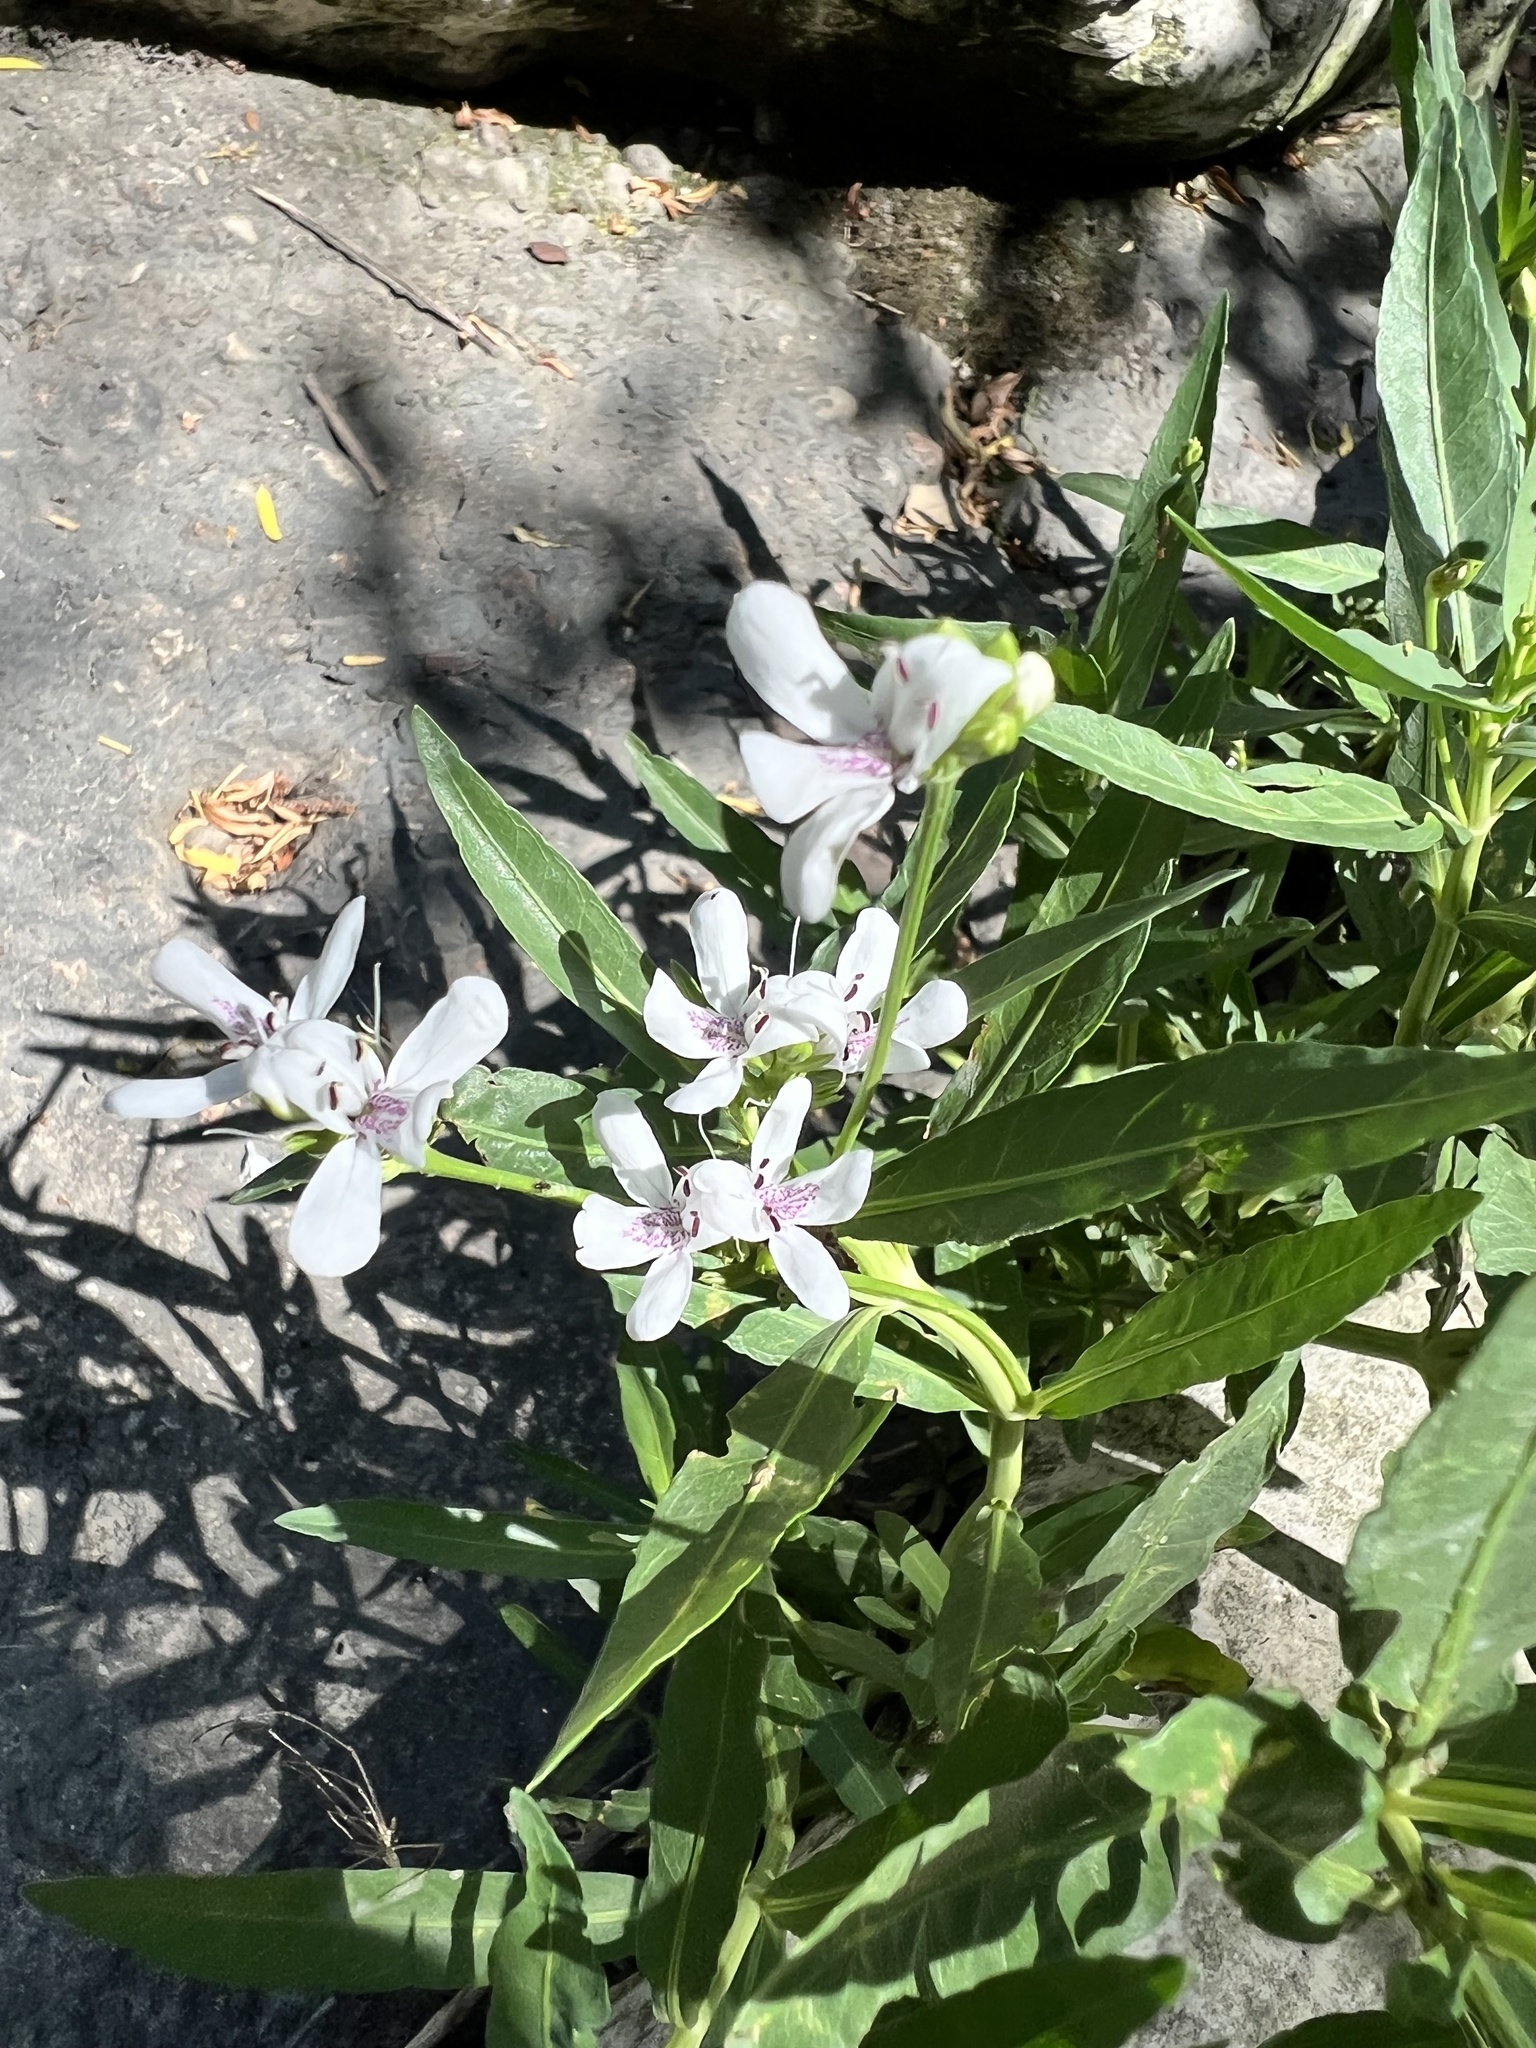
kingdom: Plantae
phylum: Tracheophyta
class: Magnoliopsida
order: Lamiales
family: Acanthaceae
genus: Dianthera
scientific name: Dianthera americana
